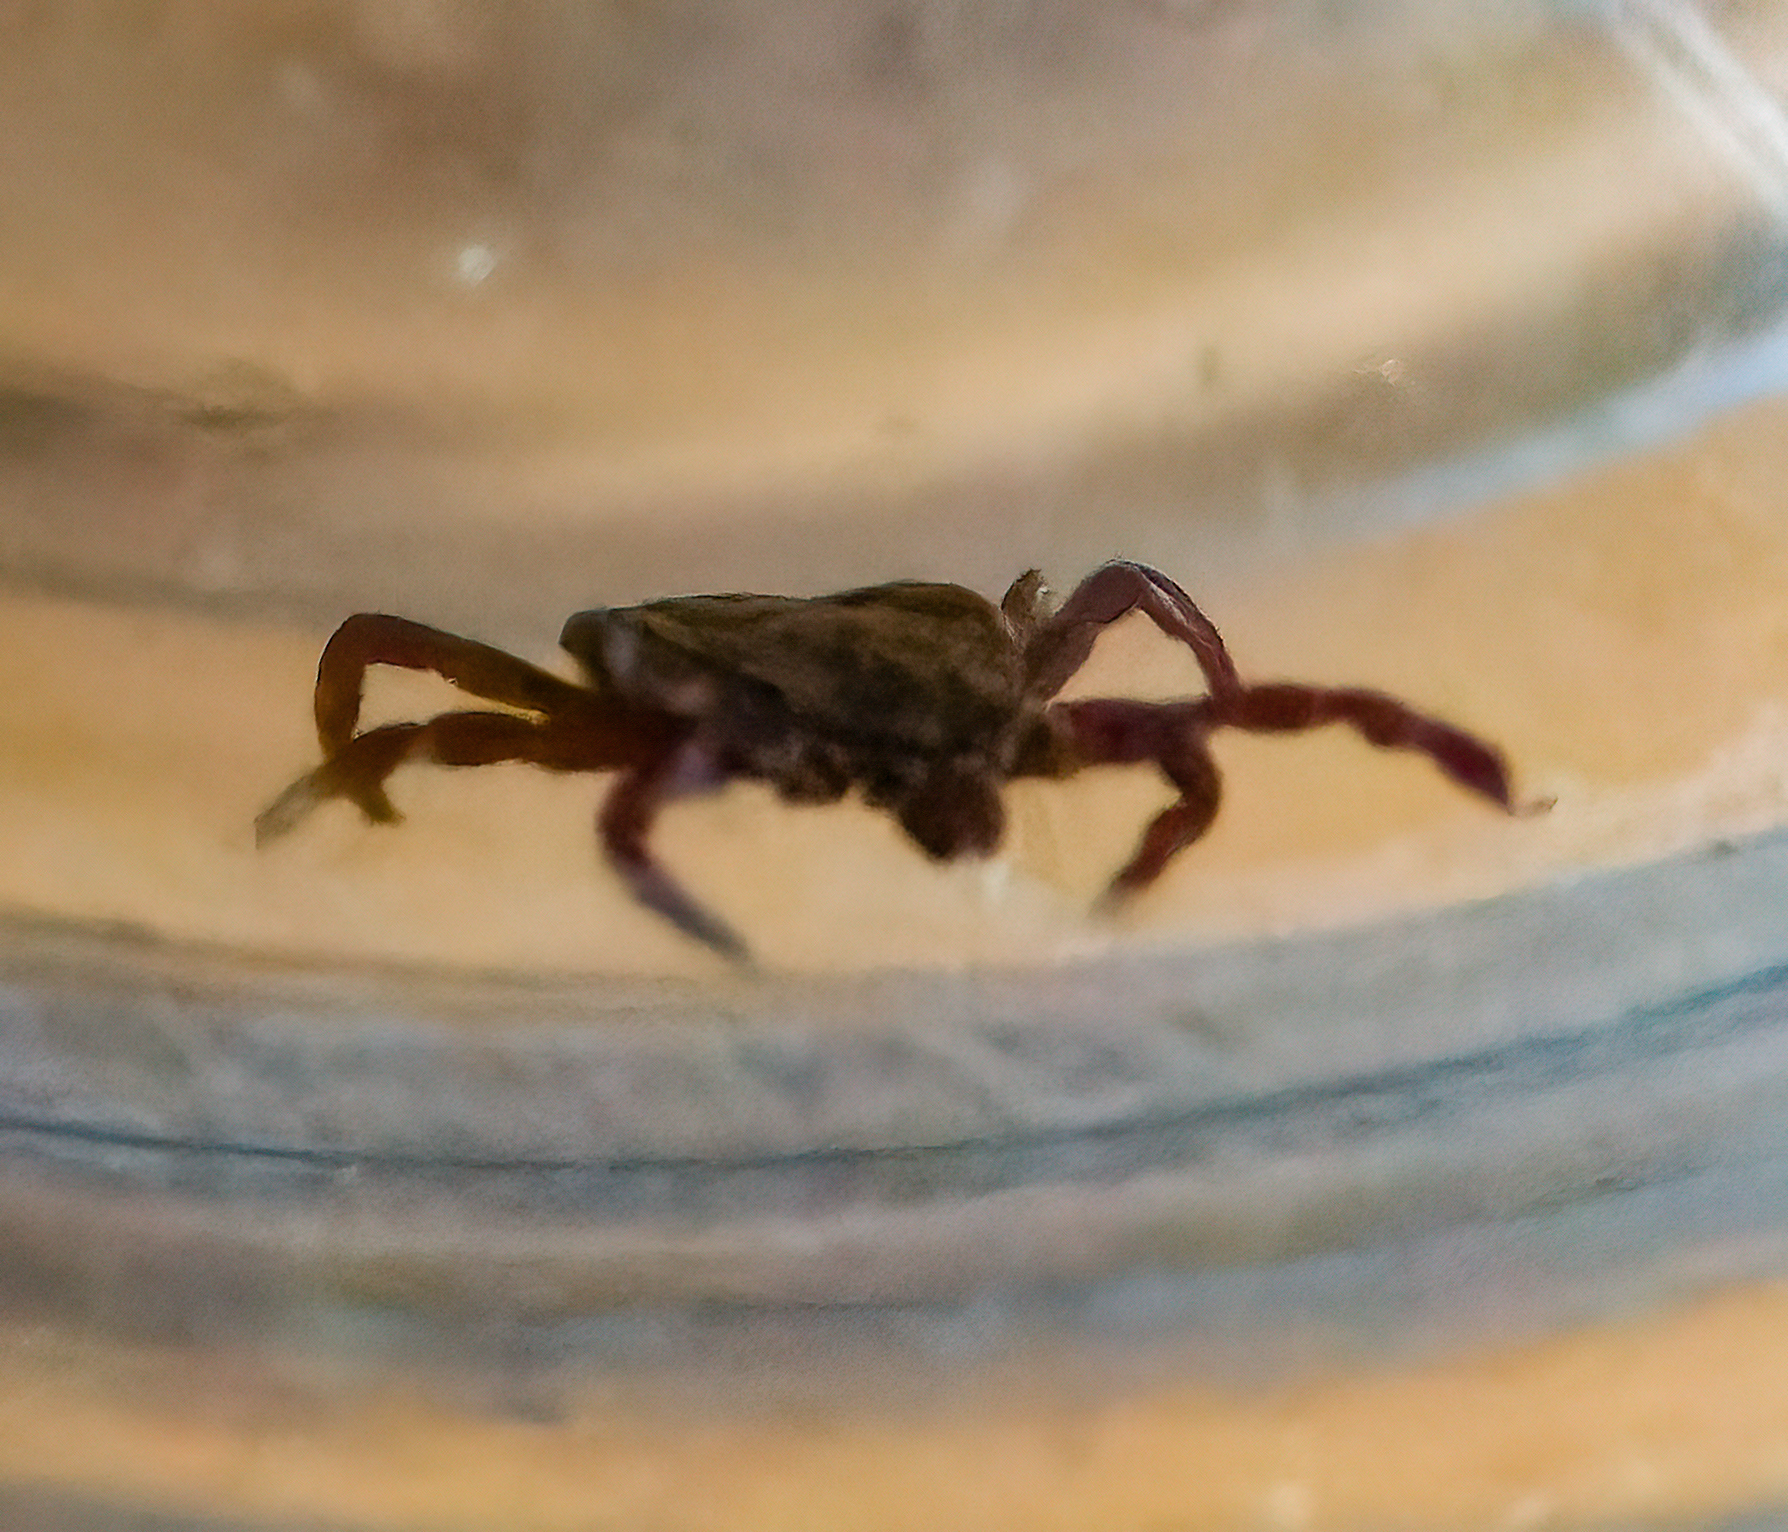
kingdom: Animalia
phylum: Arthropoda
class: Arachnida
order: Ixodida
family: Ixodidae
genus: Dermacentor
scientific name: Dermacentor variabilis
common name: American dog tick
